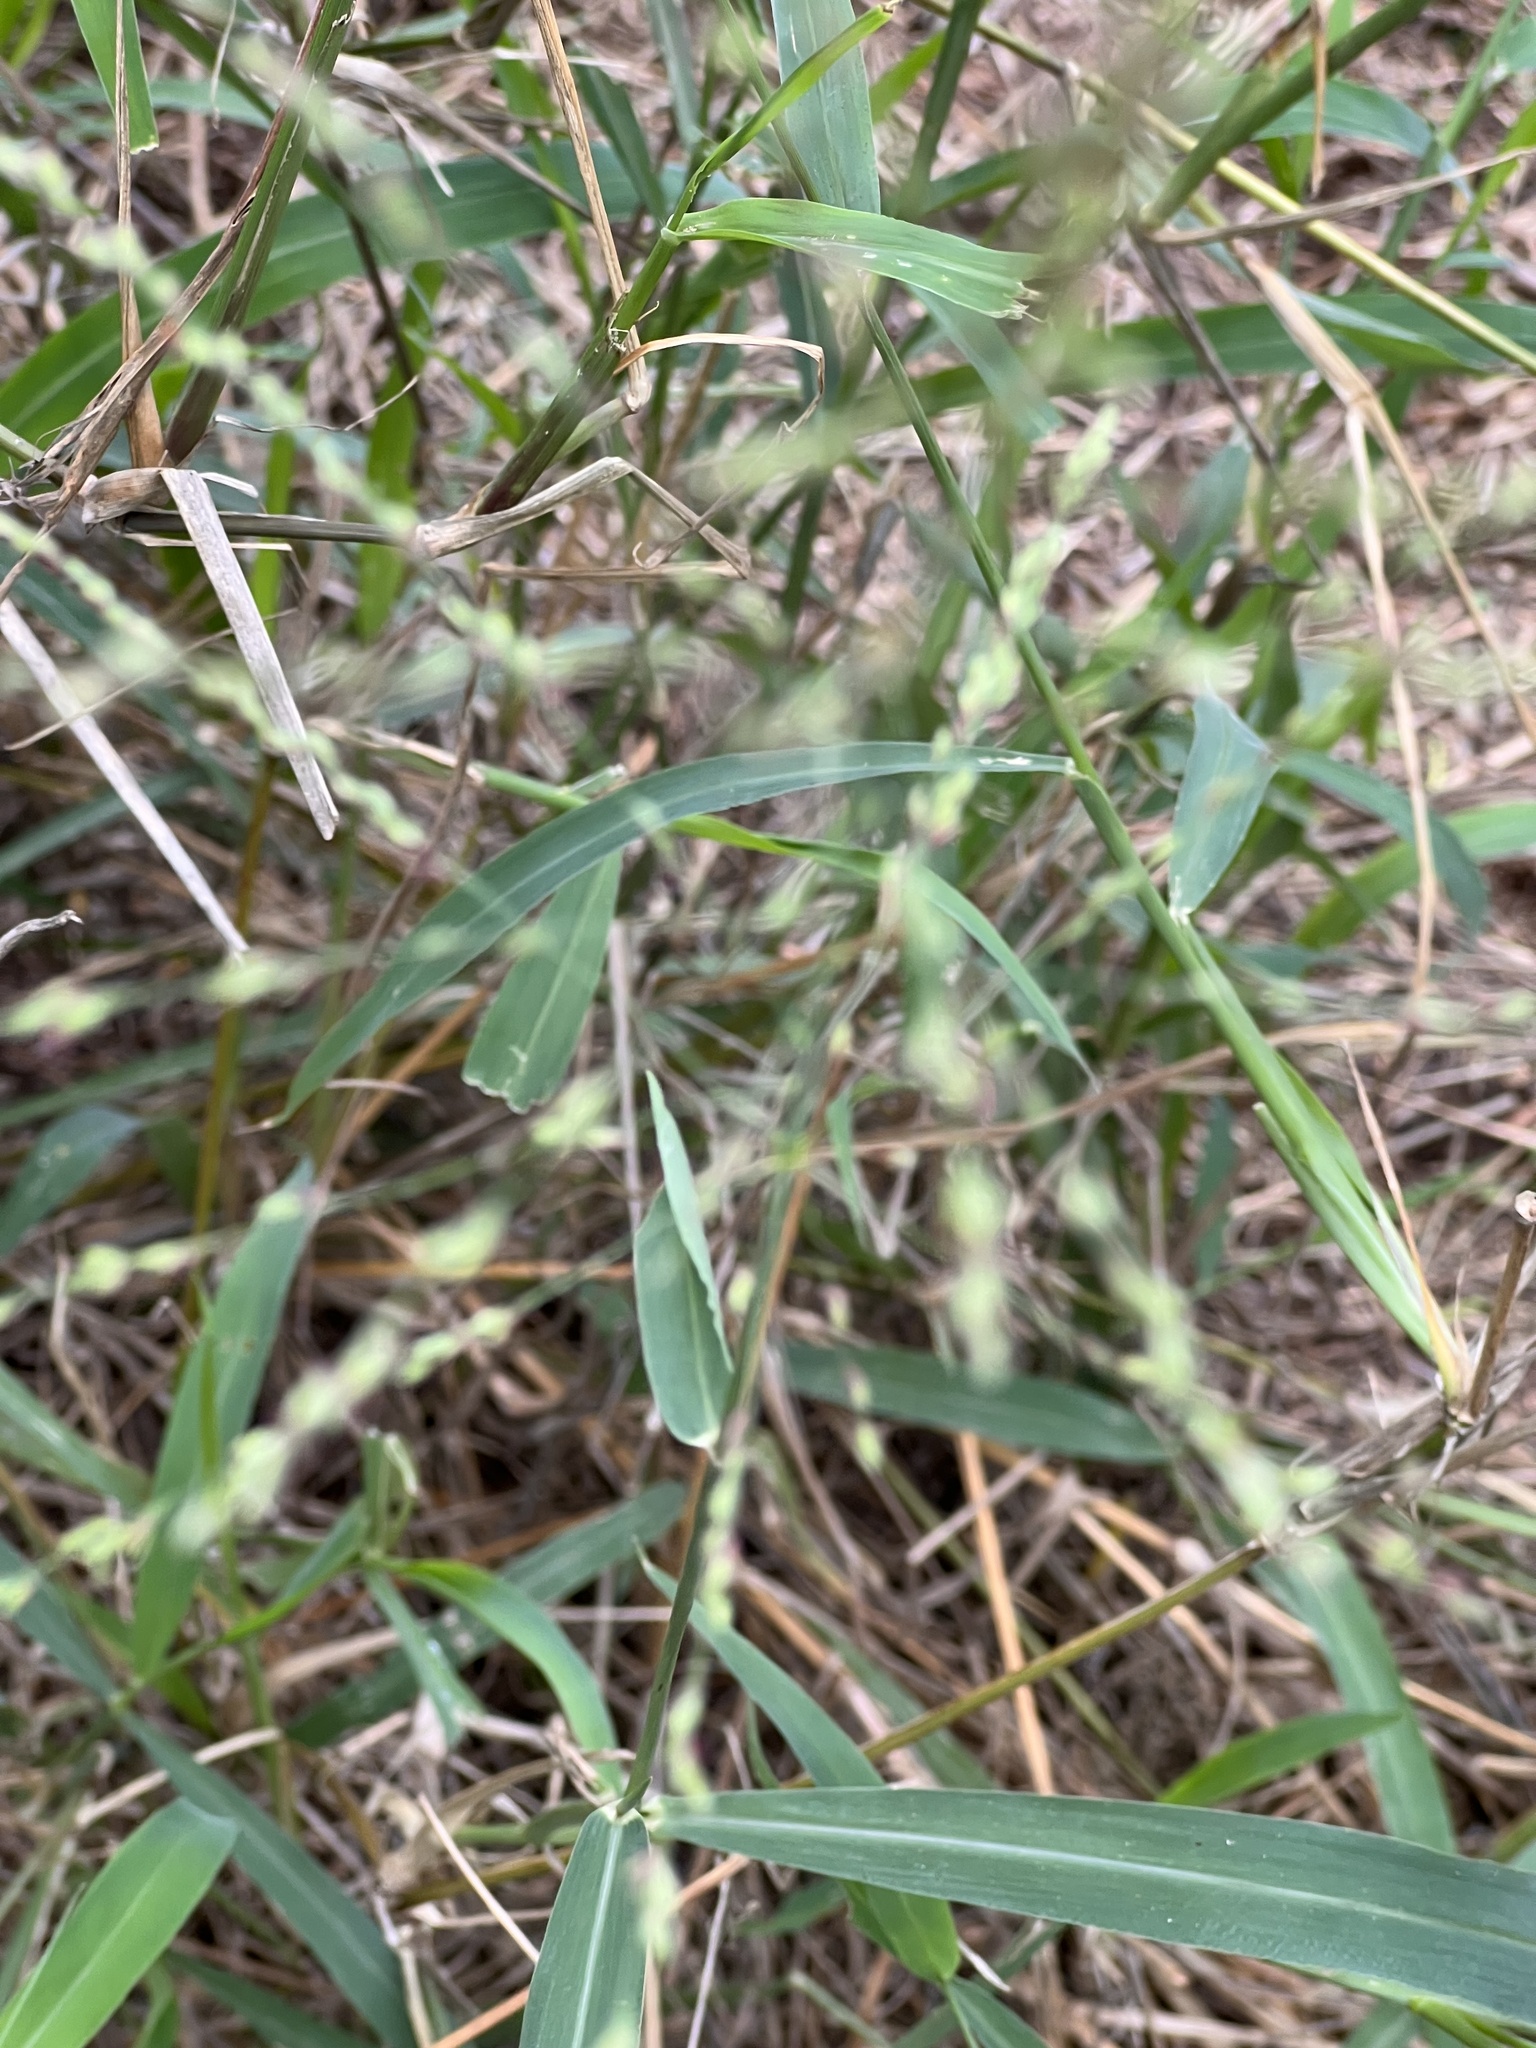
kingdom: Plantae
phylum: Tracheophyta
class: Liliopsida
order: Poales
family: Poaceae
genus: Megathyrsus
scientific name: Megathyrsus maximus
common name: Guineagrass
